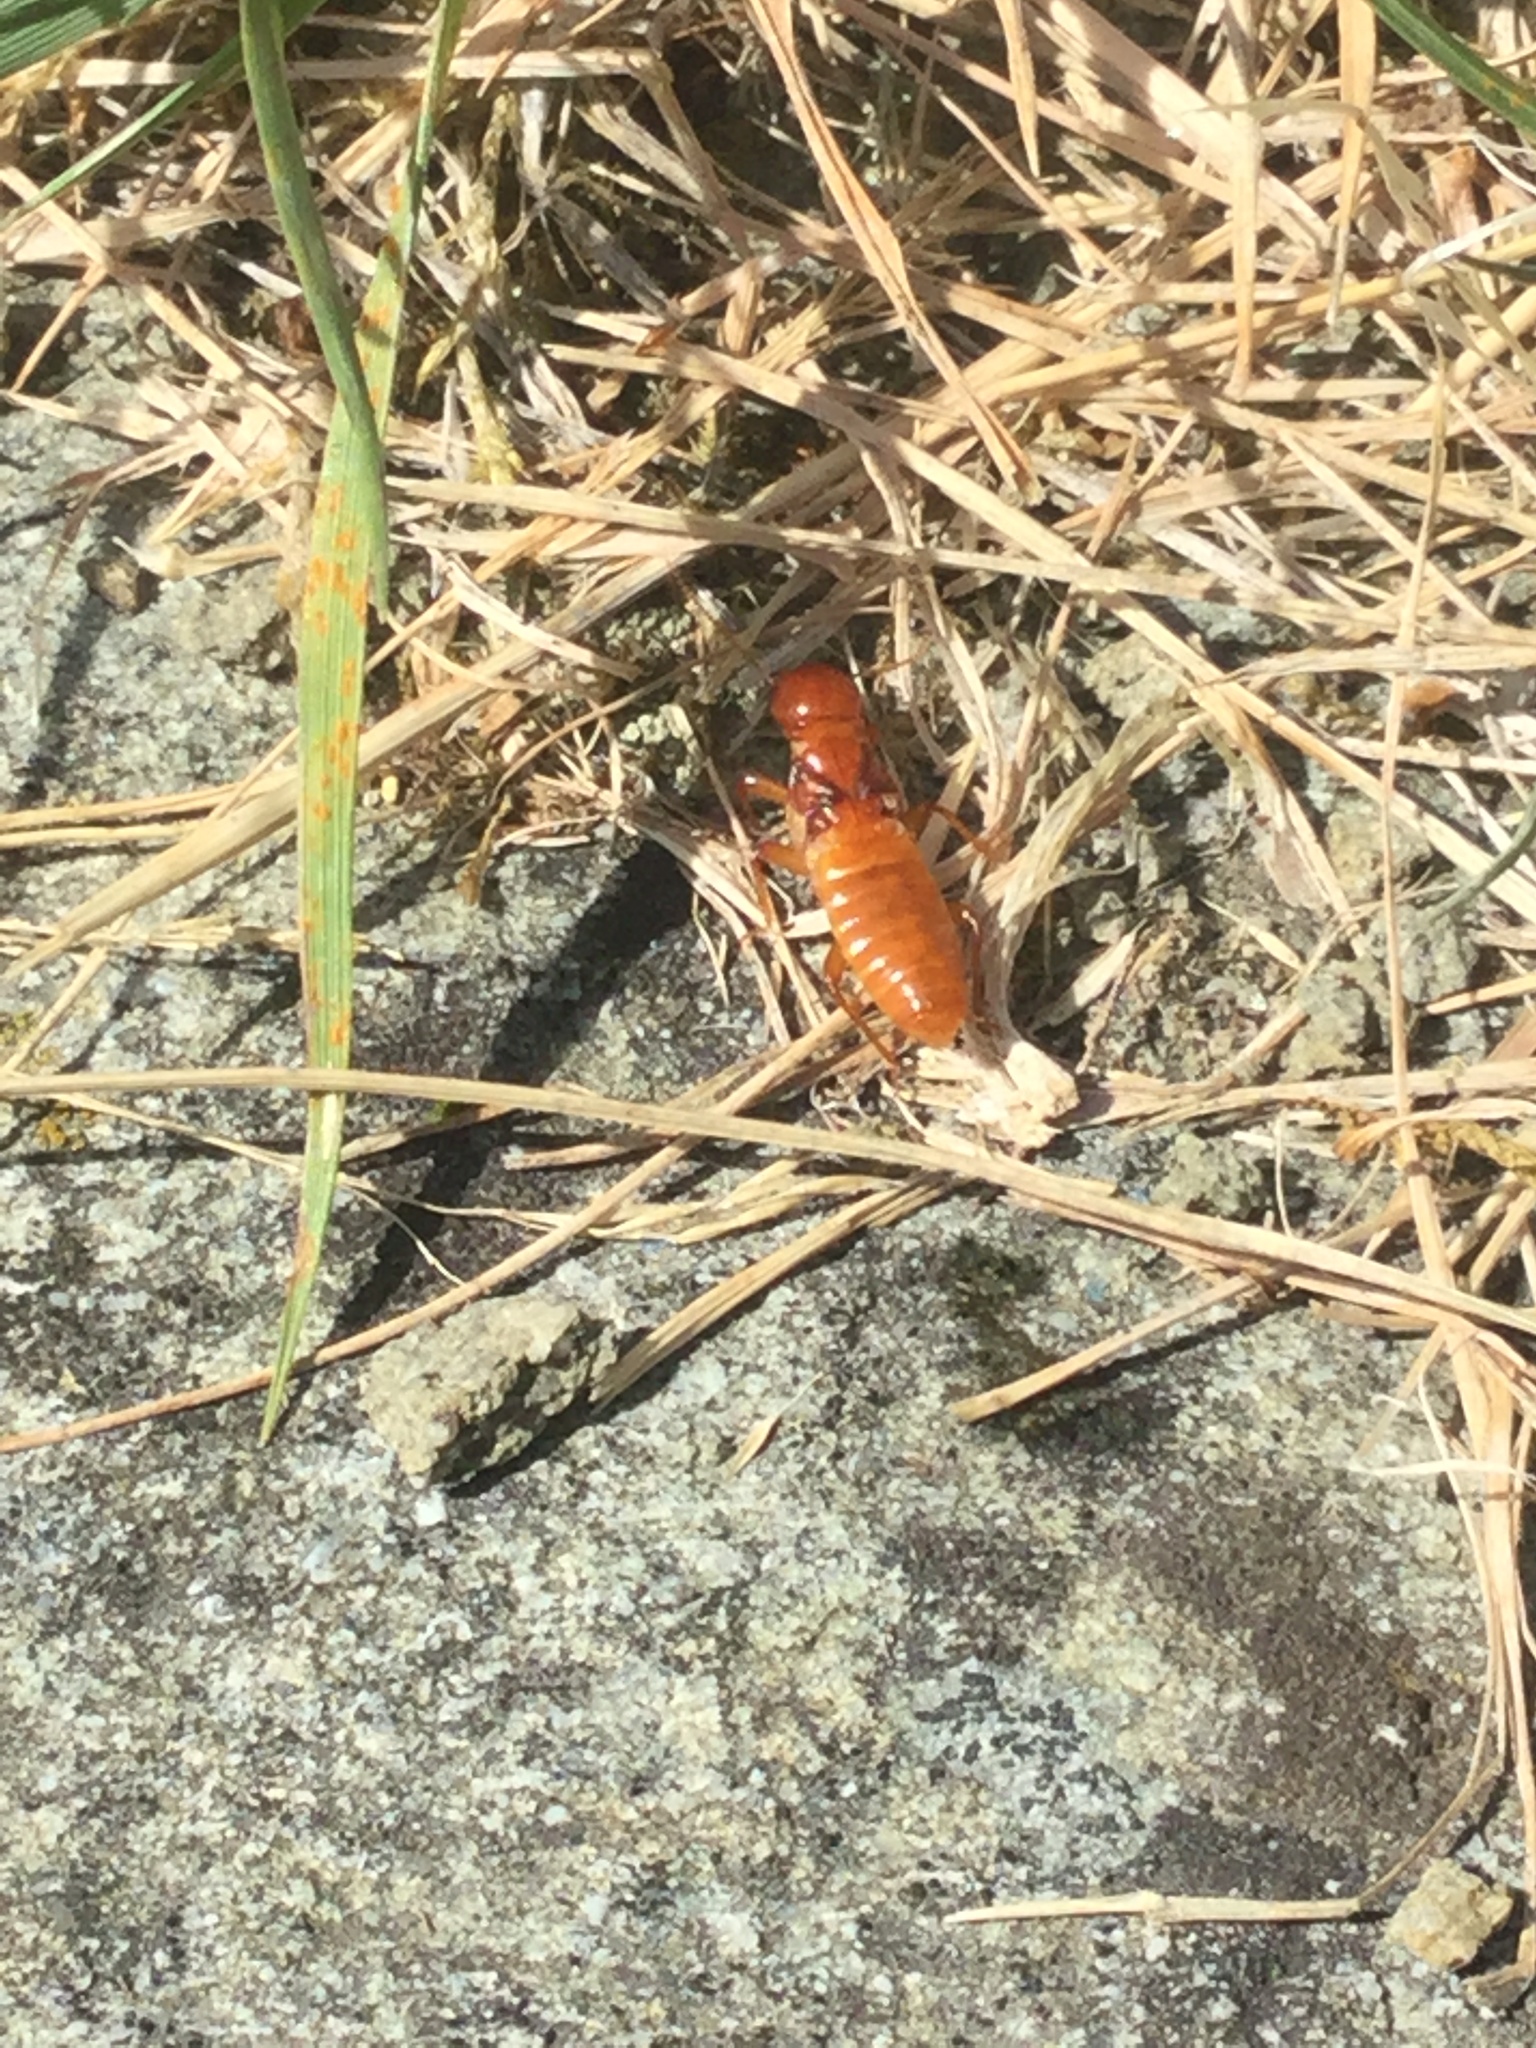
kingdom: Animalia
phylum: Arthropoda
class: Insecta
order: Blattodea
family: Archotermopsidae
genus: Zootermopsis
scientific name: Zootermopsis angusticollis
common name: Rottenwood termite
